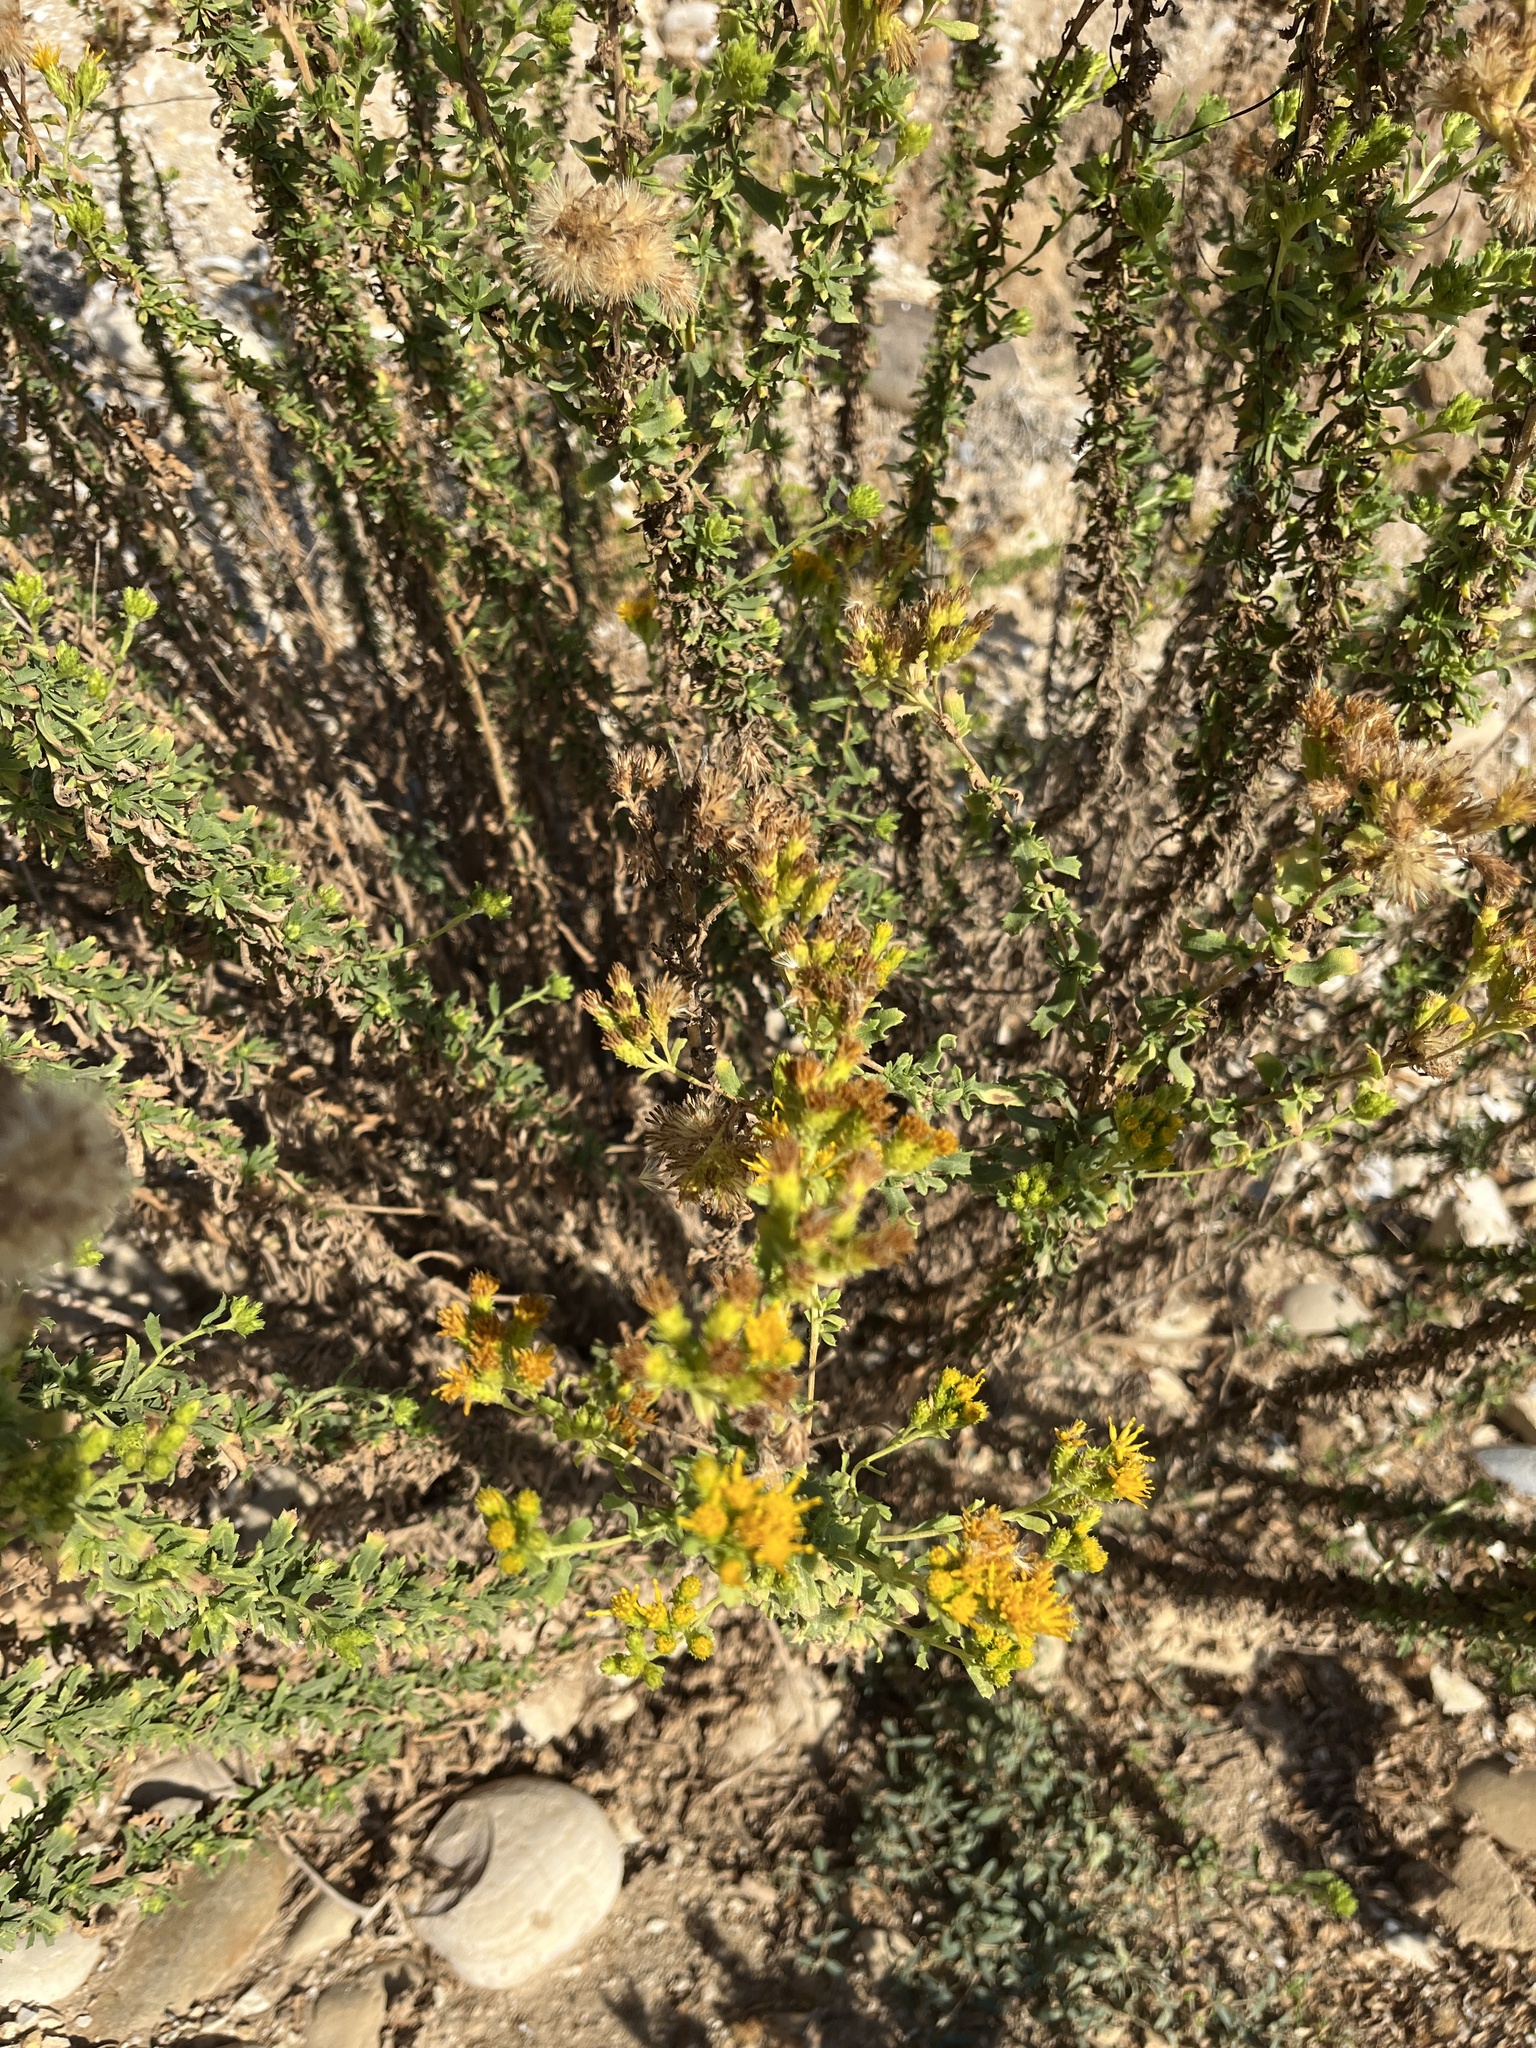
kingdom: Plantae
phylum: Tracheophyta
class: Magnoliopsida
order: Asterales
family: Asteraceae
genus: Isocoma
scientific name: Isocoma menziesii
